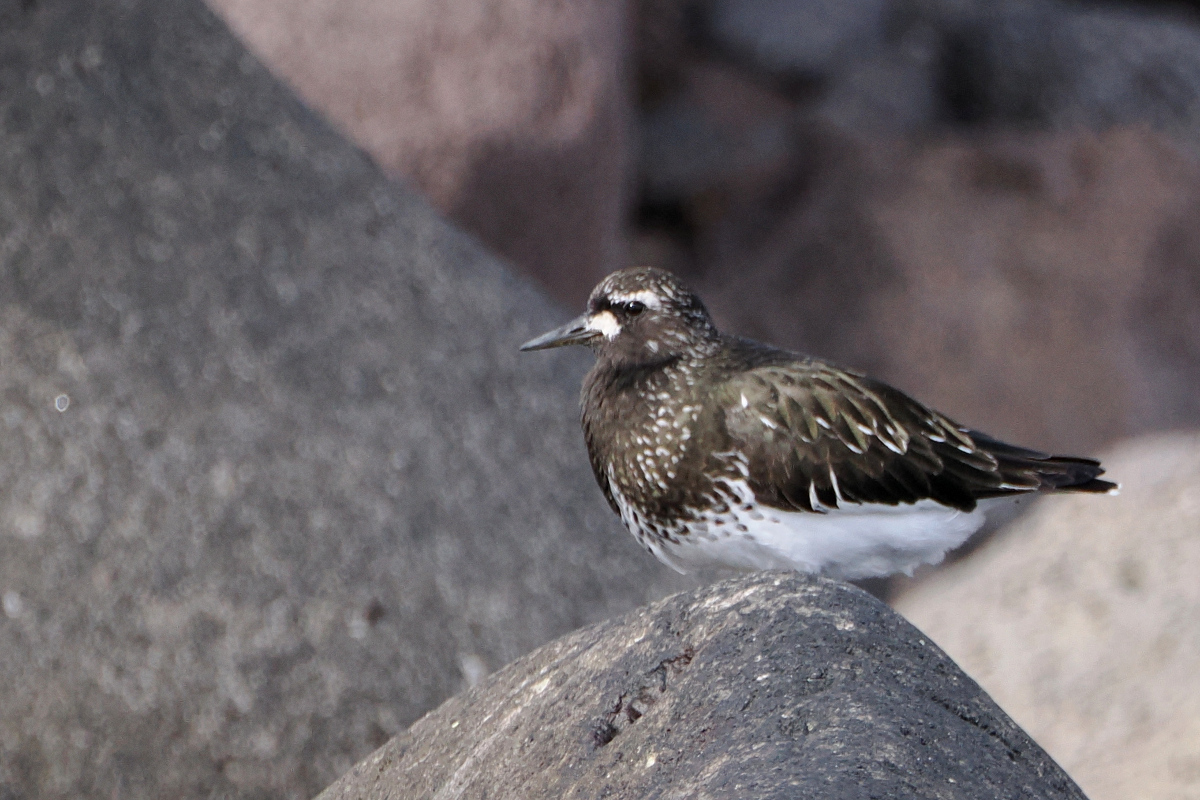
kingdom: Animalia
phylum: Chordata
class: Aves
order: Charadriiformes
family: Scolopacidae
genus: Arenaria
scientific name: Arenaria melanocephala
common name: Black turnstone
